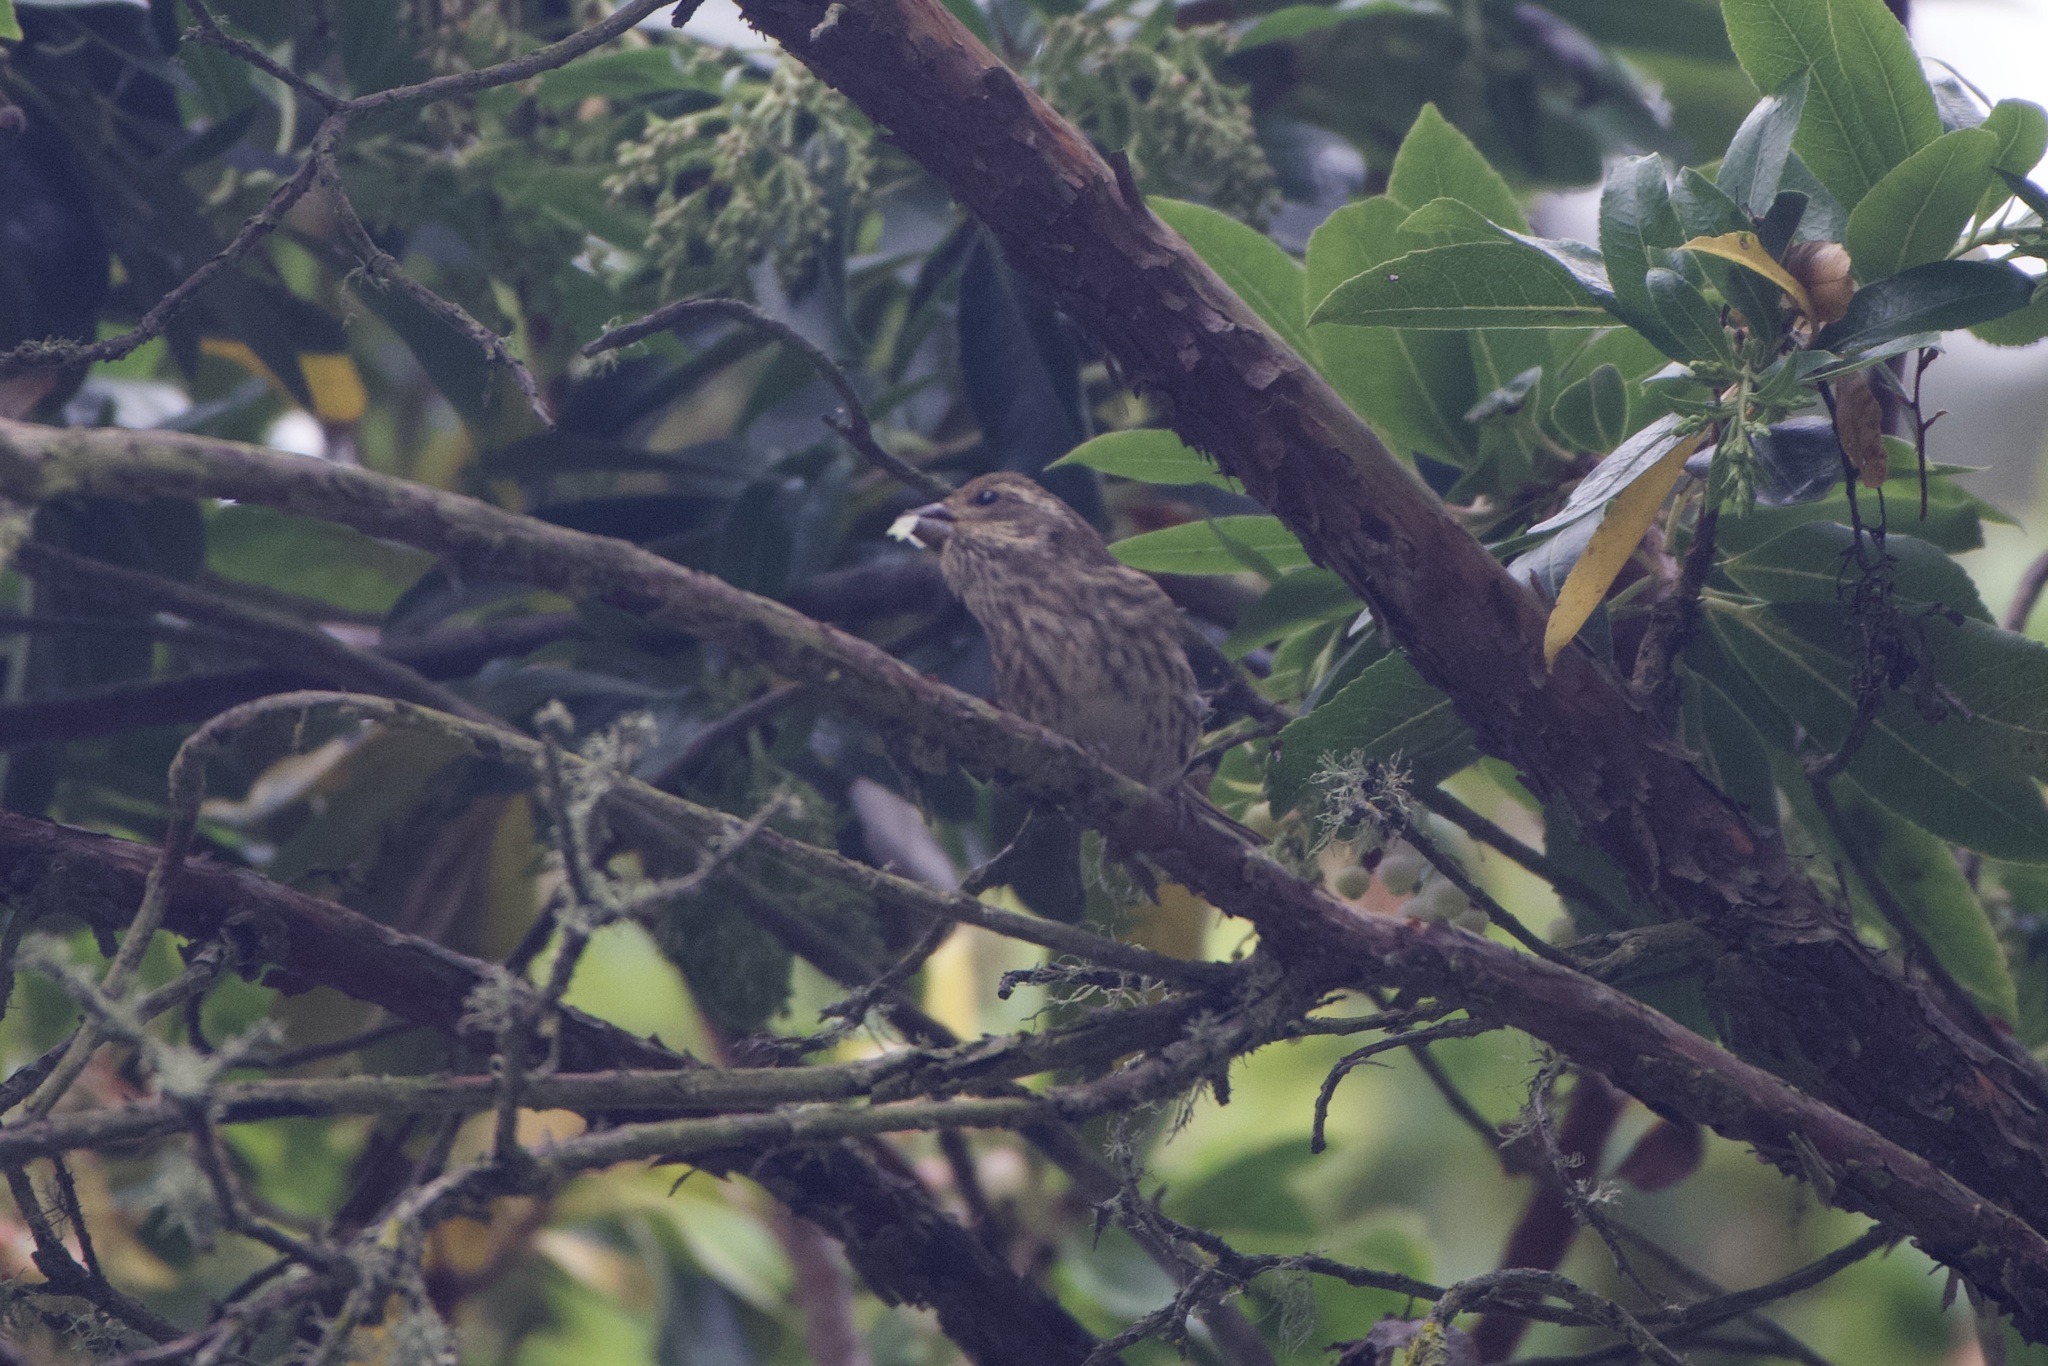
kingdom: Animalia
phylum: Chordata
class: Aves
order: Passeriformes
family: Fringillidae
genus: Haemorhous
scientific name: Haemorhous purpureus
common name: Purple finch
